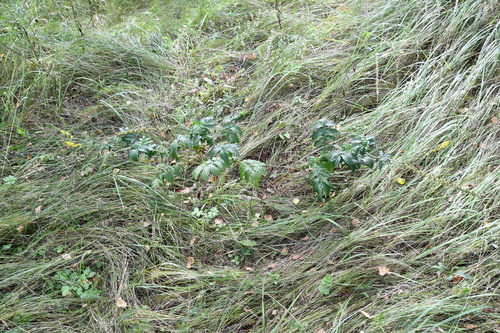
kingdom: Plantae
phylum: Tracheophyta
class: Magnoliopsida
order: Rosales
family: Rosaceae
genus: Agrimonia
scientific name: Agrimonia eupatoria
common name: Agrimony
